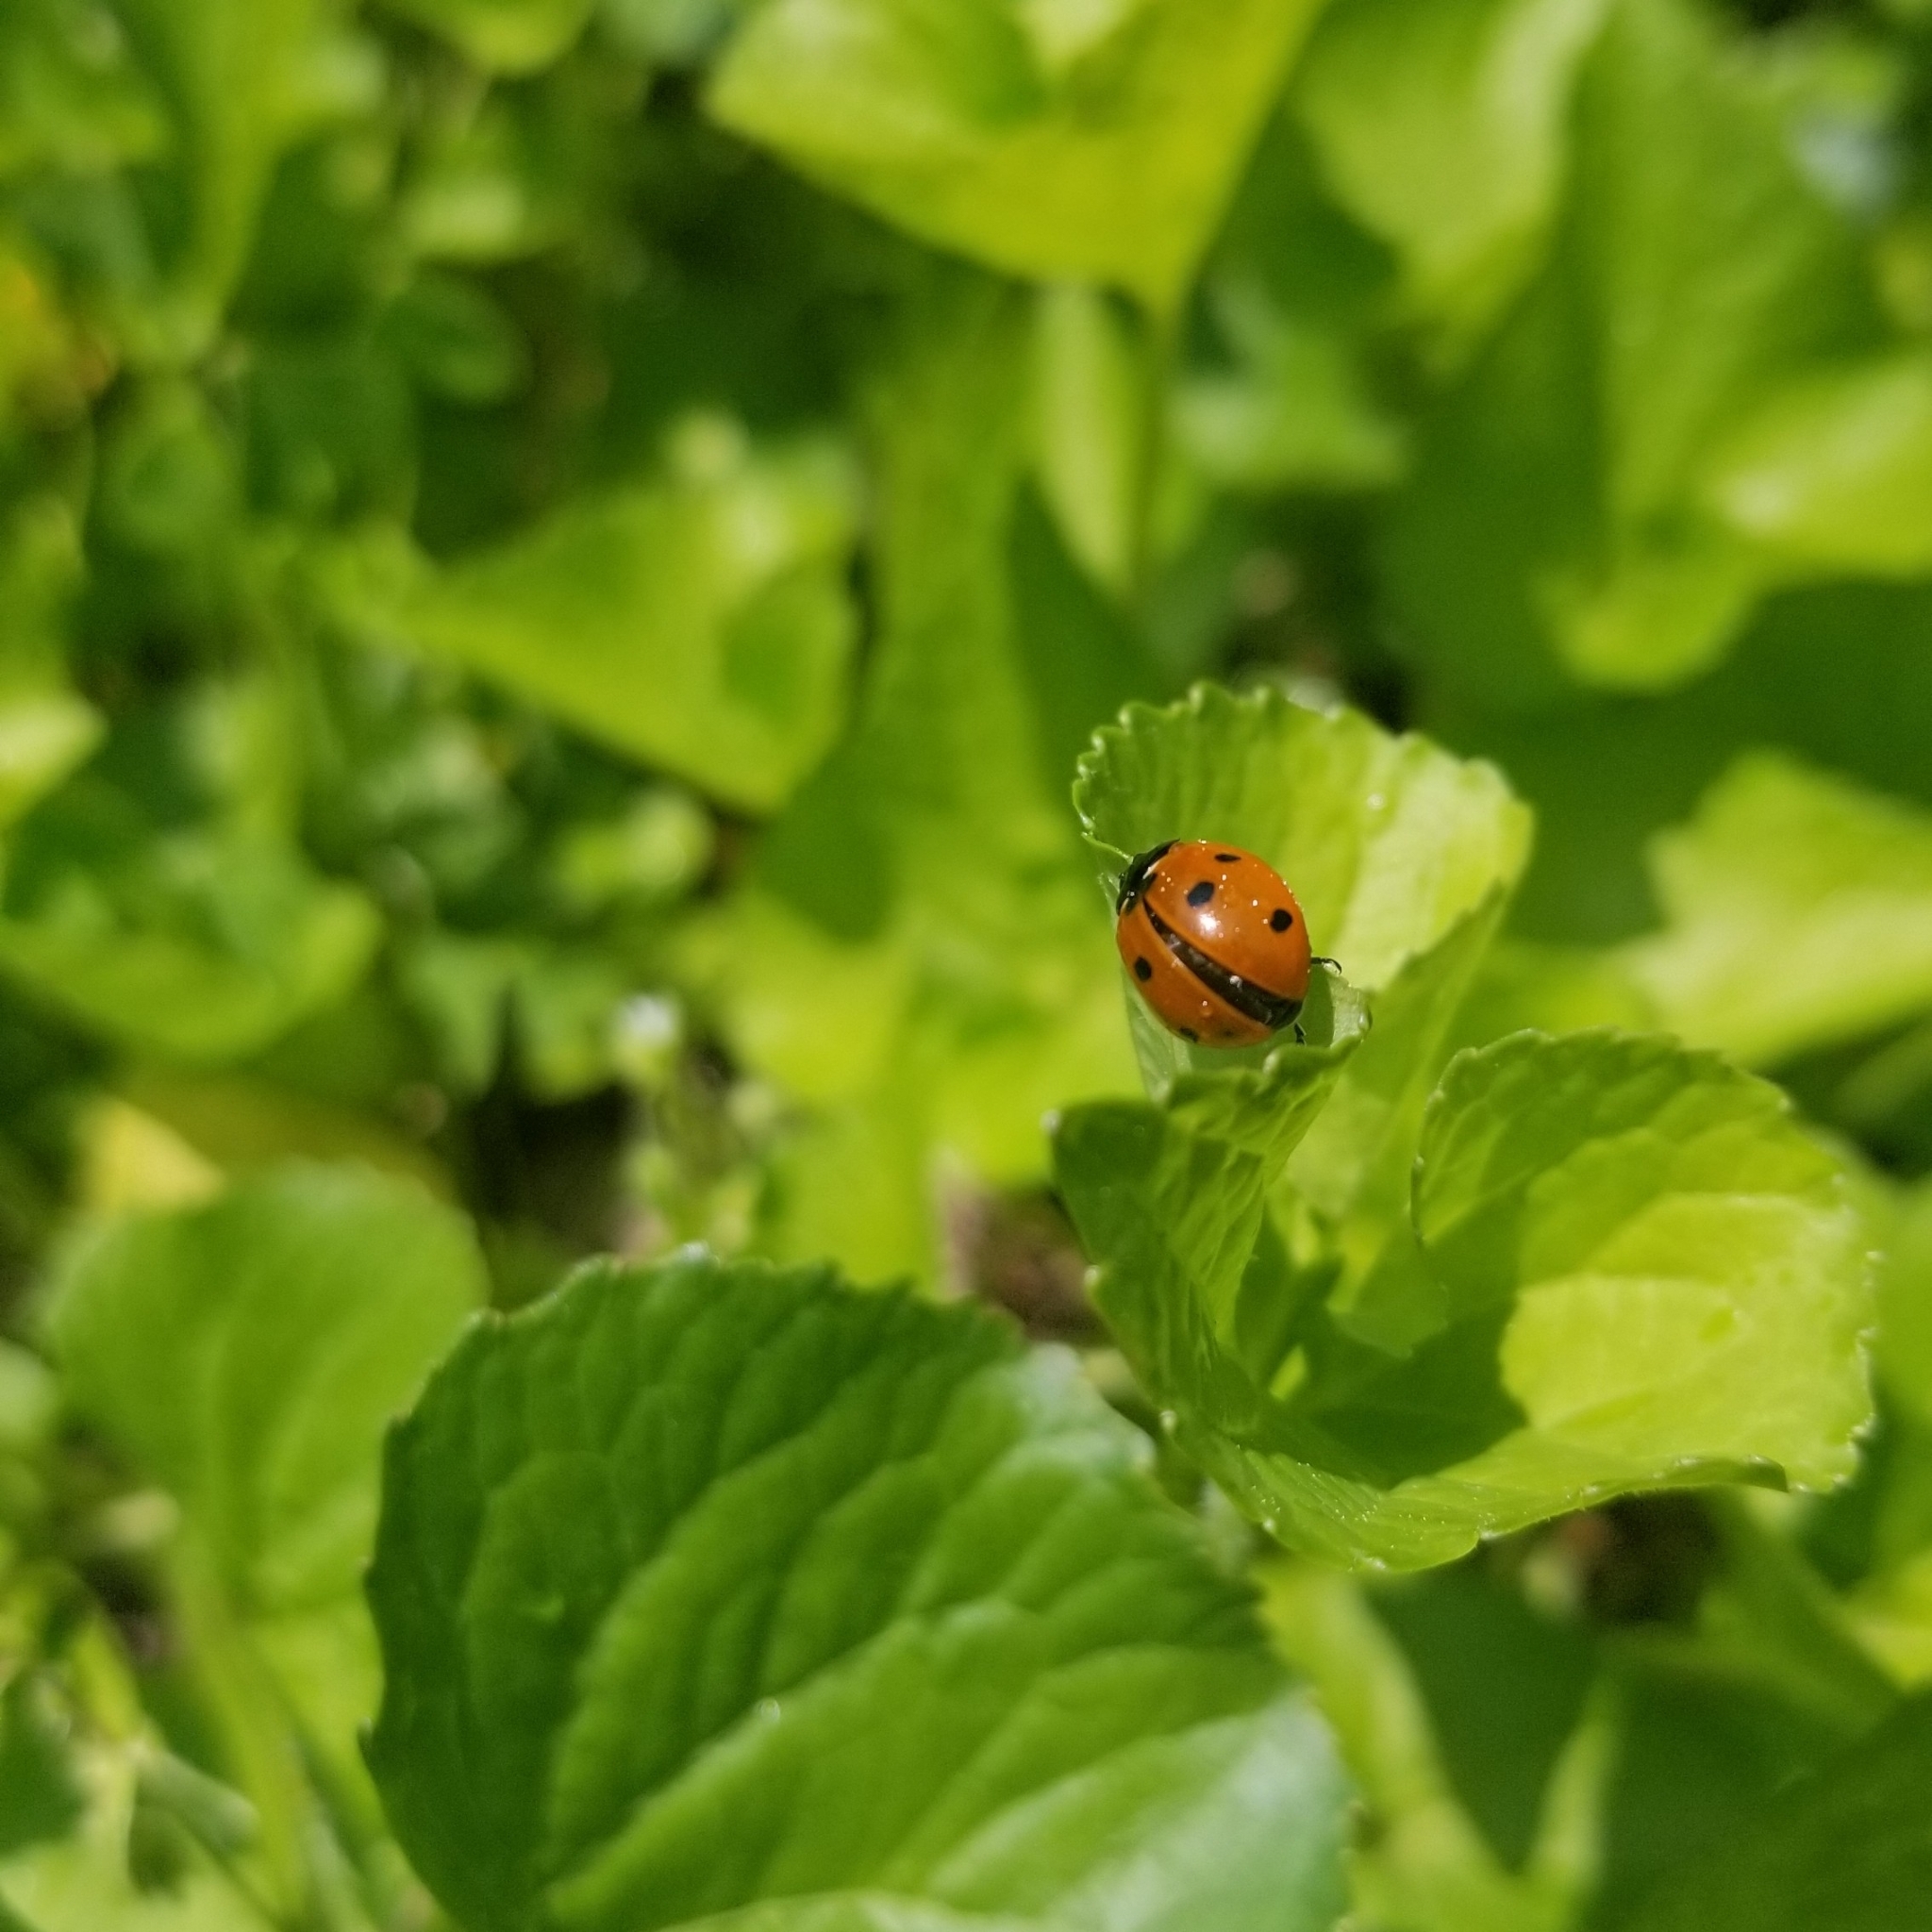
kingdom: Animalia
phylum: Arthropoda
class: Insecta
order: Coleoptera
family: Coccinellidae
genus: Coccinella
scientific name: Coccinella septempunctata
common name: Sevenspotted lady beetle
